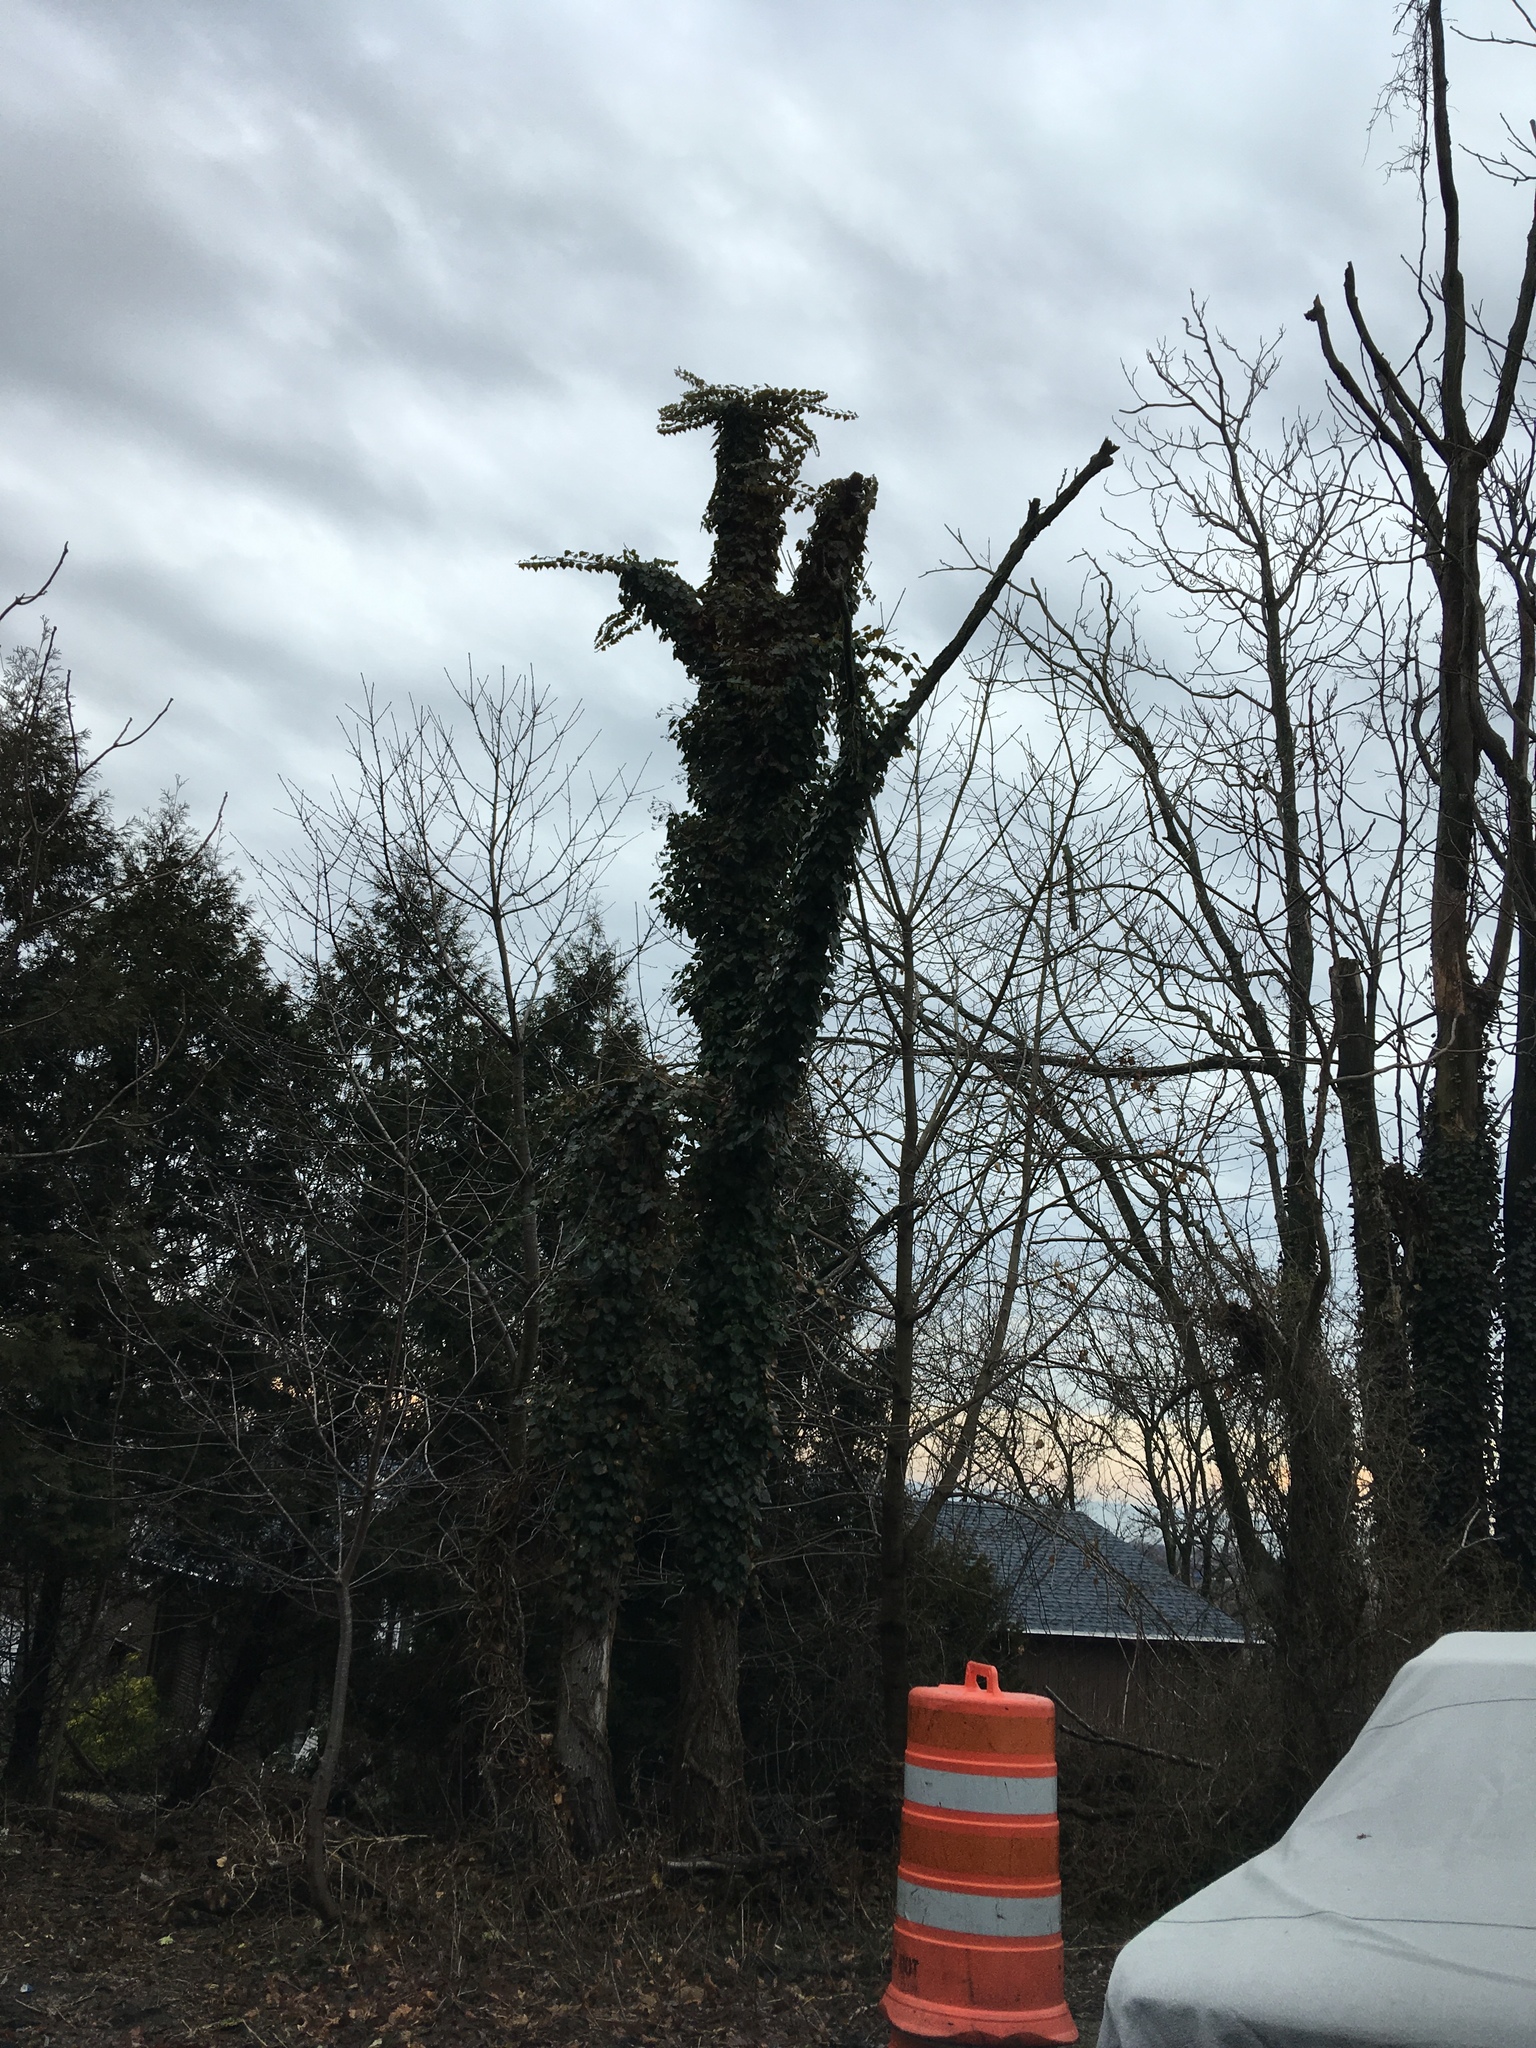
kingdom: Plantae
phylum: Tracheophyta
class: Magnoliopsida
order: Apiales
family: Araliaceae
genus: Hedera
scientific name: Hedera helix
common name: Ivy
